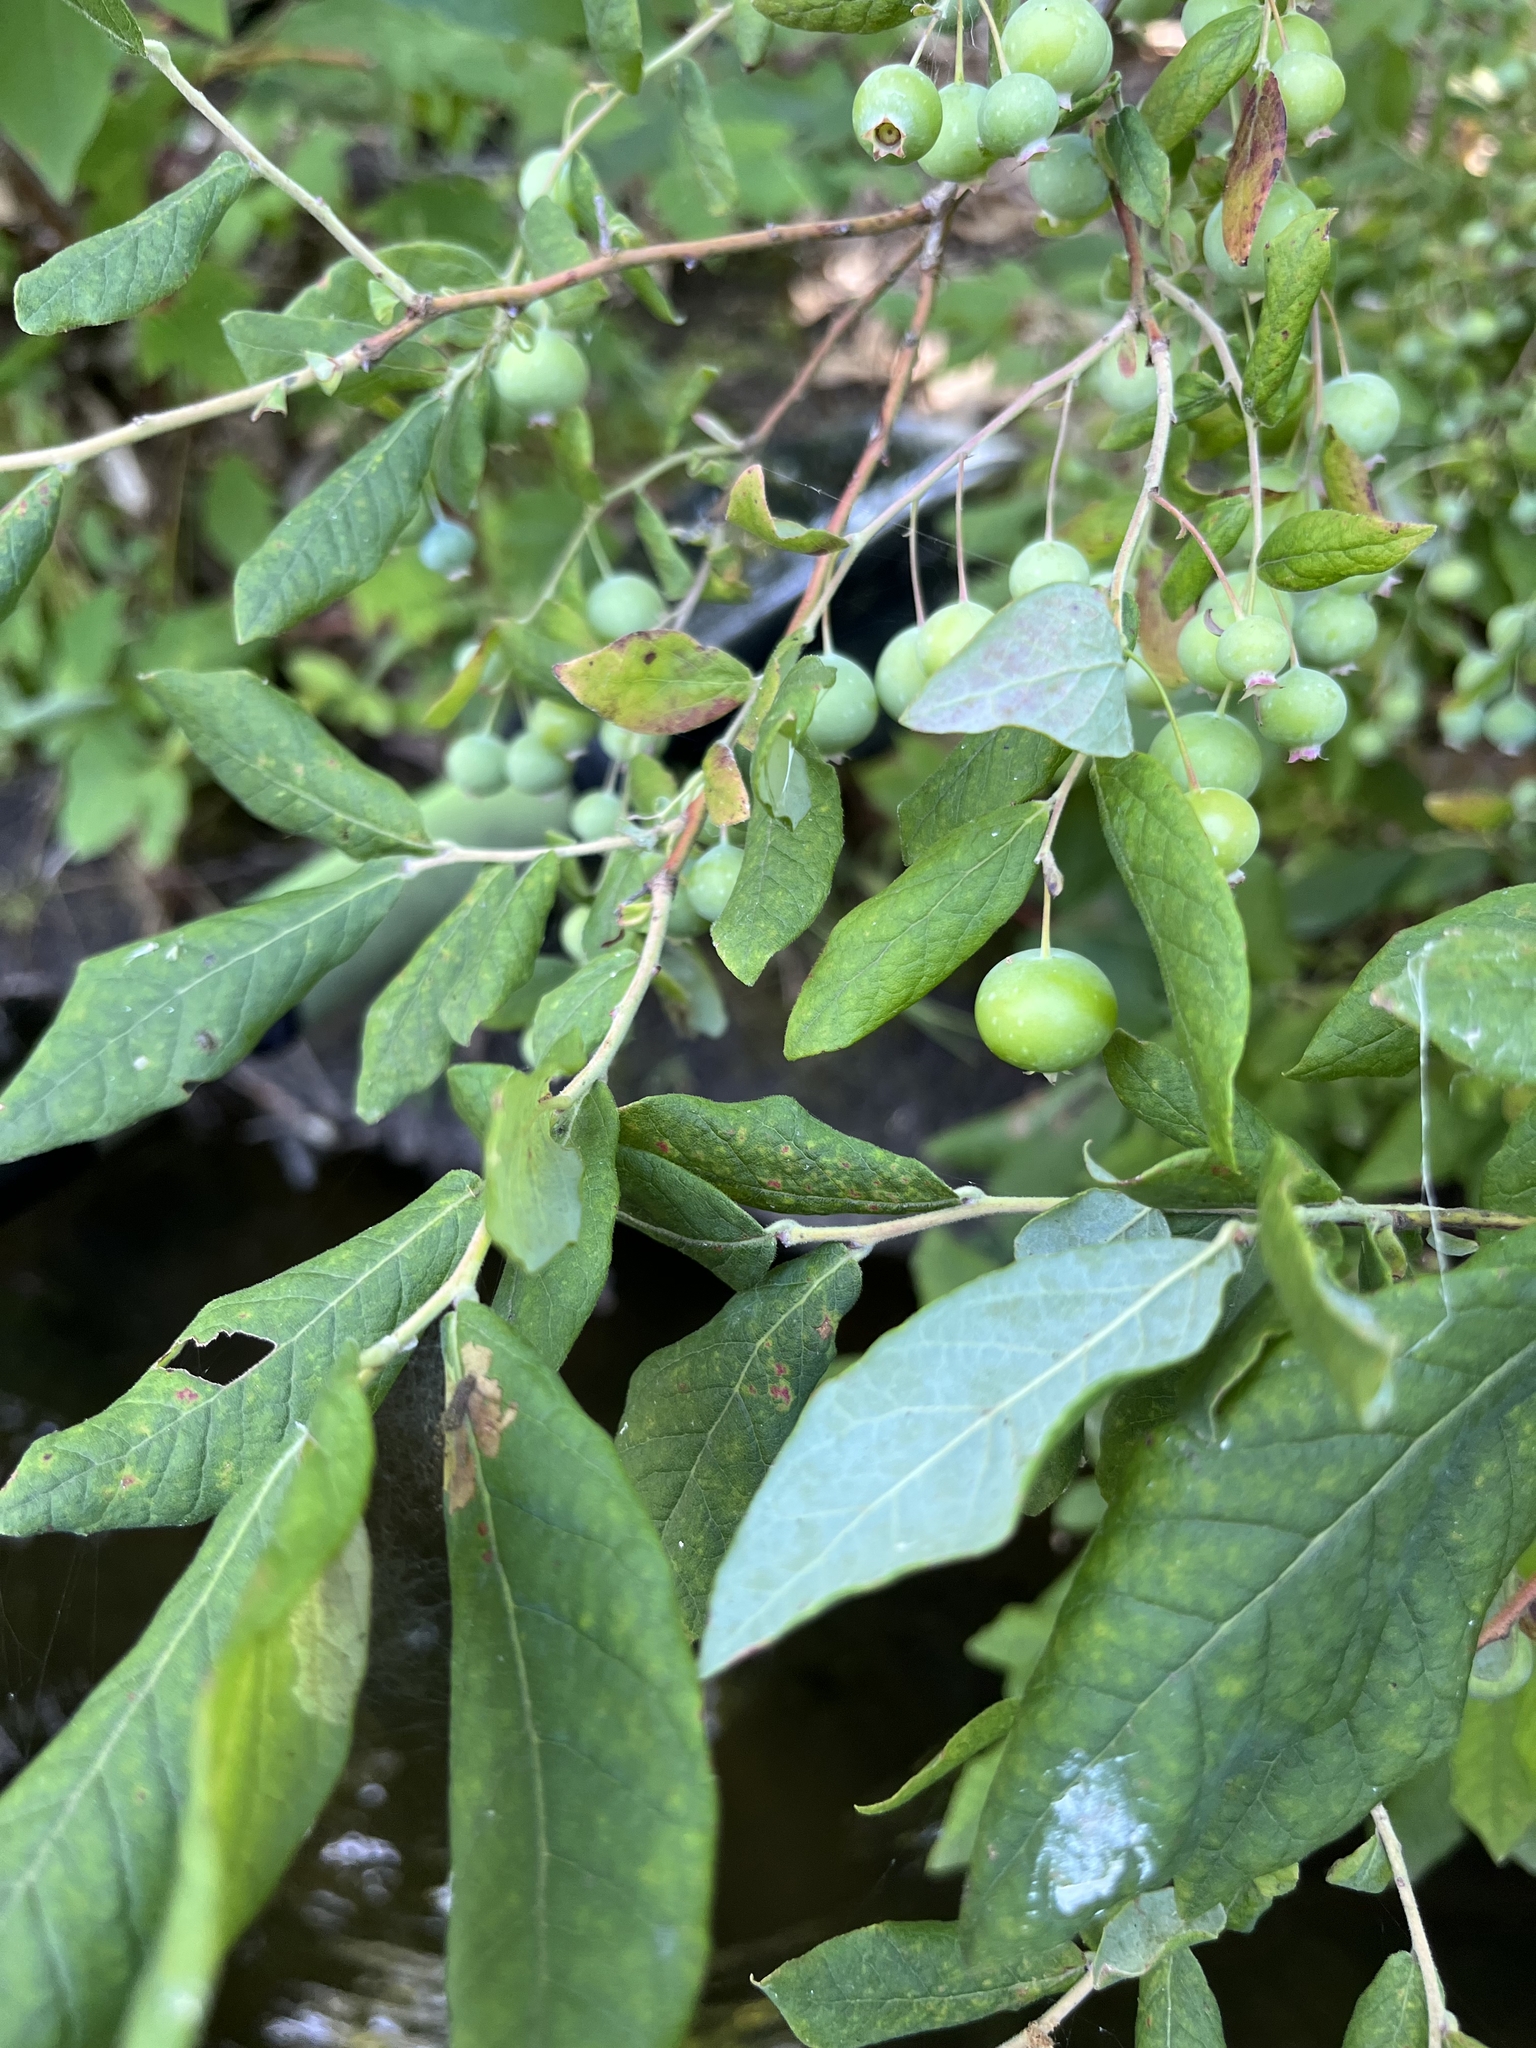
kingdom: Plantae
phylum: Tracheophyta
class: Magnoliopsida
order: Ericales
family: Ericaceae
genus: Vaccinium
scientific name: Vaccinium stamineum
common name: Deerberry
